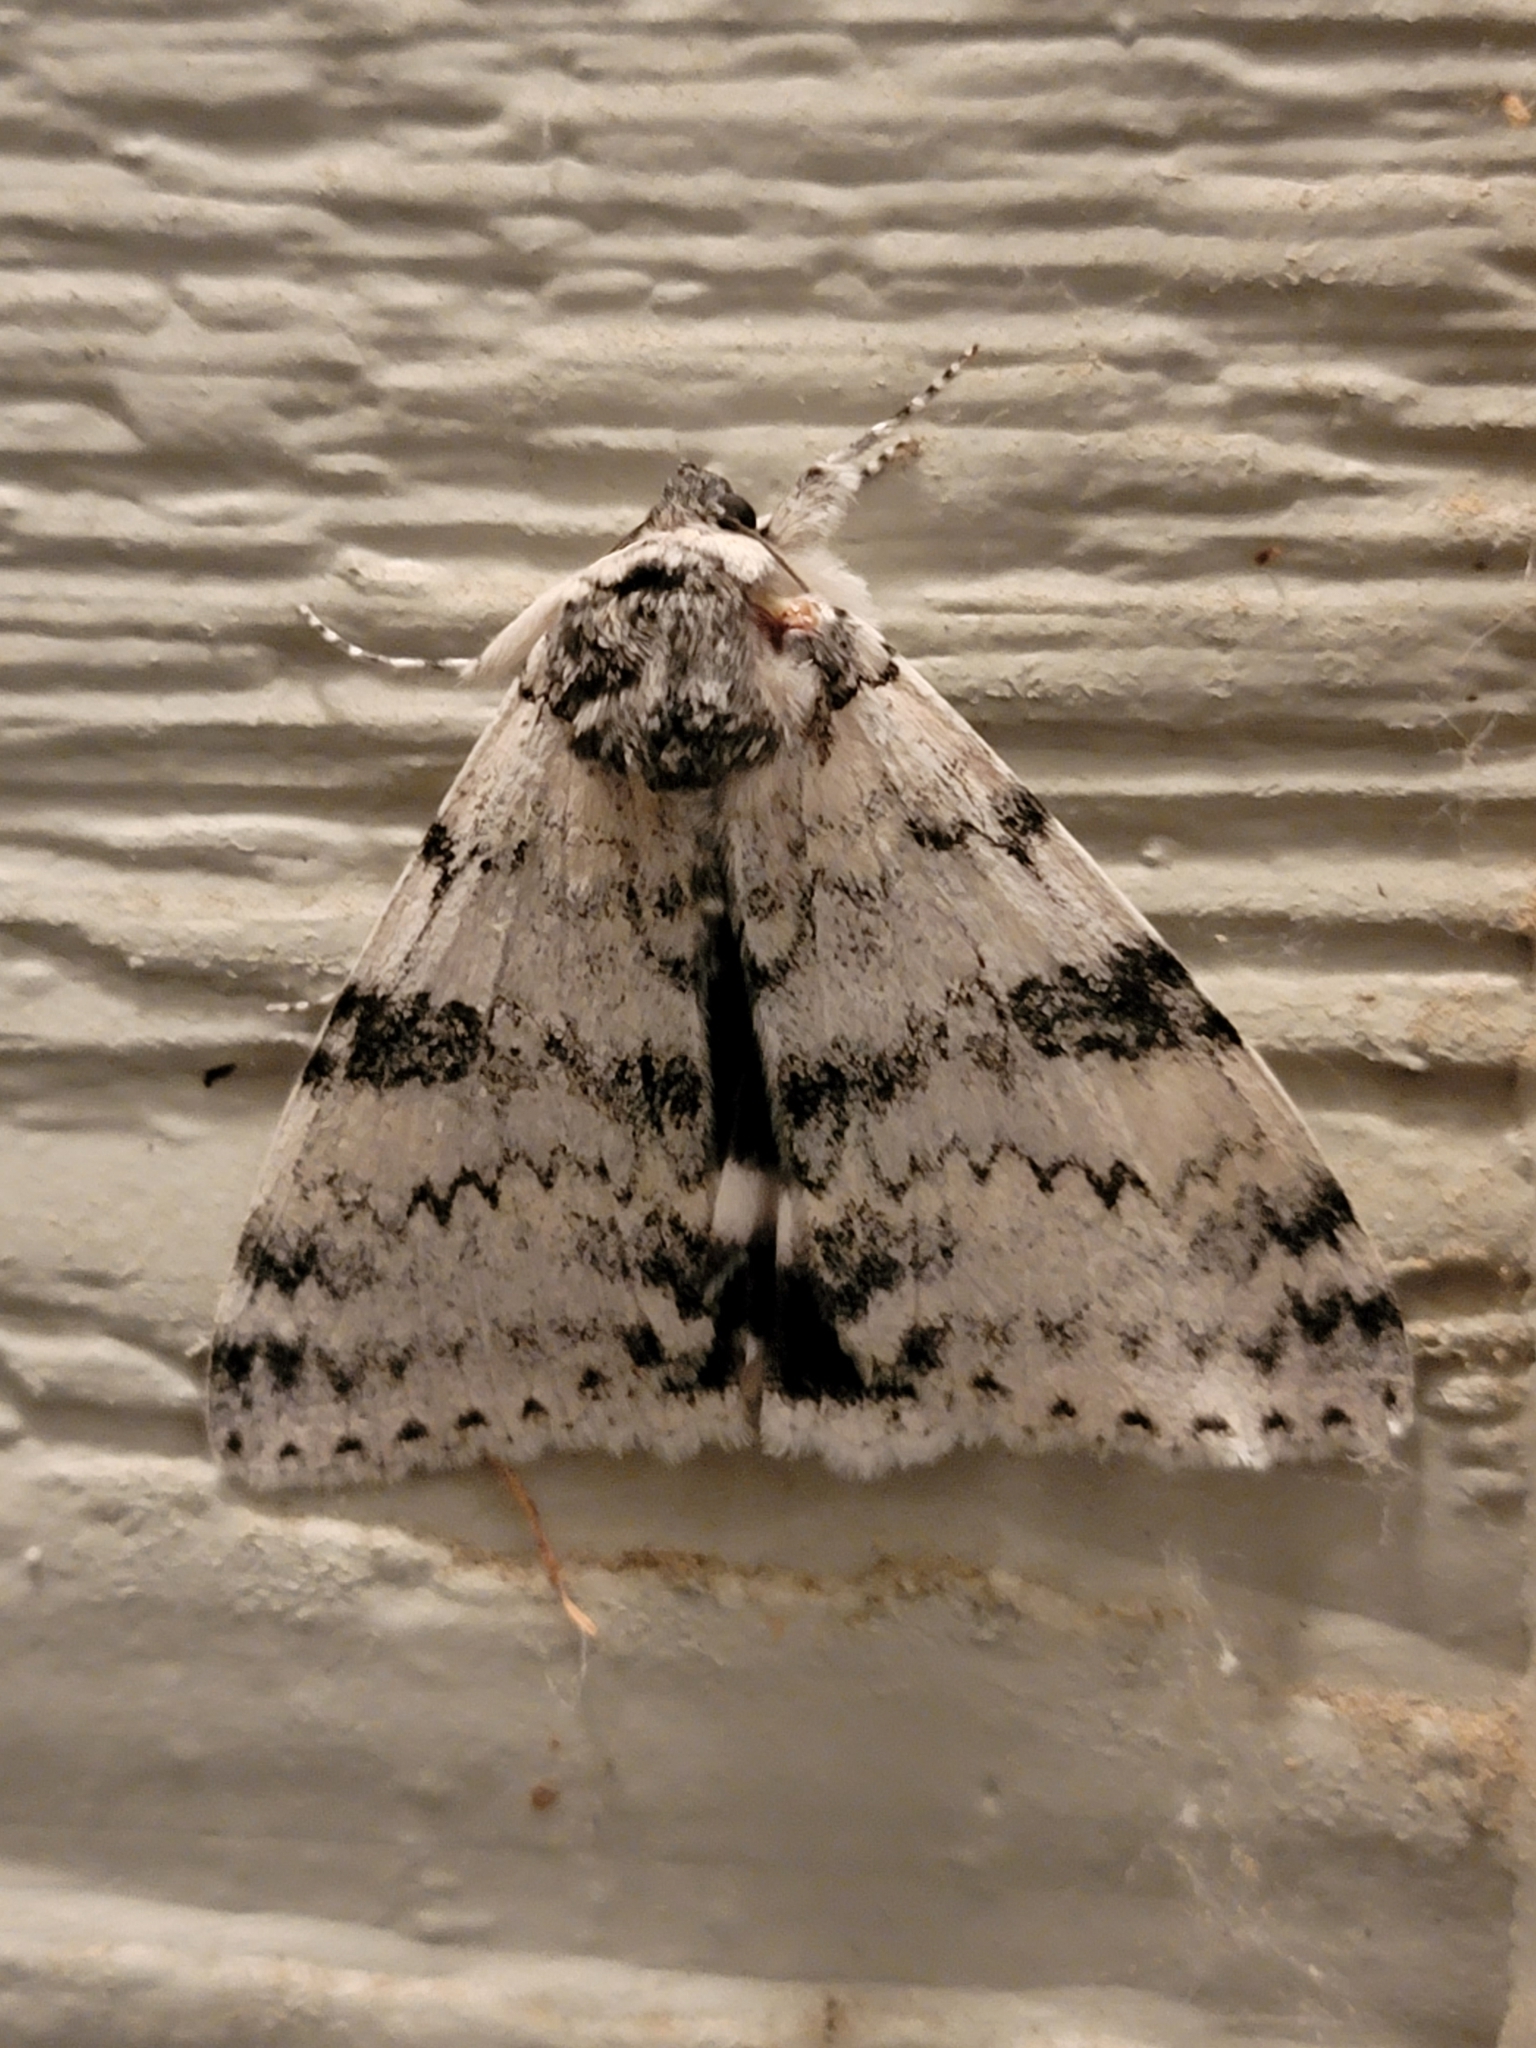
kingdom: Animalia
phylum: Arthropoda
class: Insecta
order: Lepidoptera
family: Erebidae
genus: Catocala
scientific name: Catocala relicta
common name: White underwing
